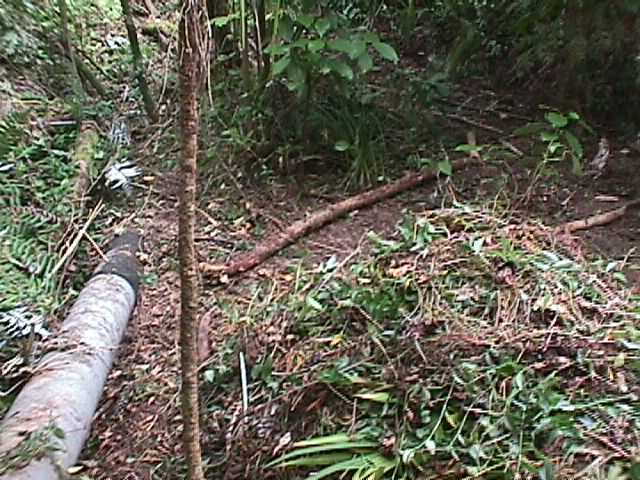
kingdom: Plantae
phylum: Tracheophyta
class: Liliopsida
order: Commelinales
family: Commelinaceae
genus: Tradescantia
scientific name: Tradescantia fluminensis
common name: Wandering-jew
